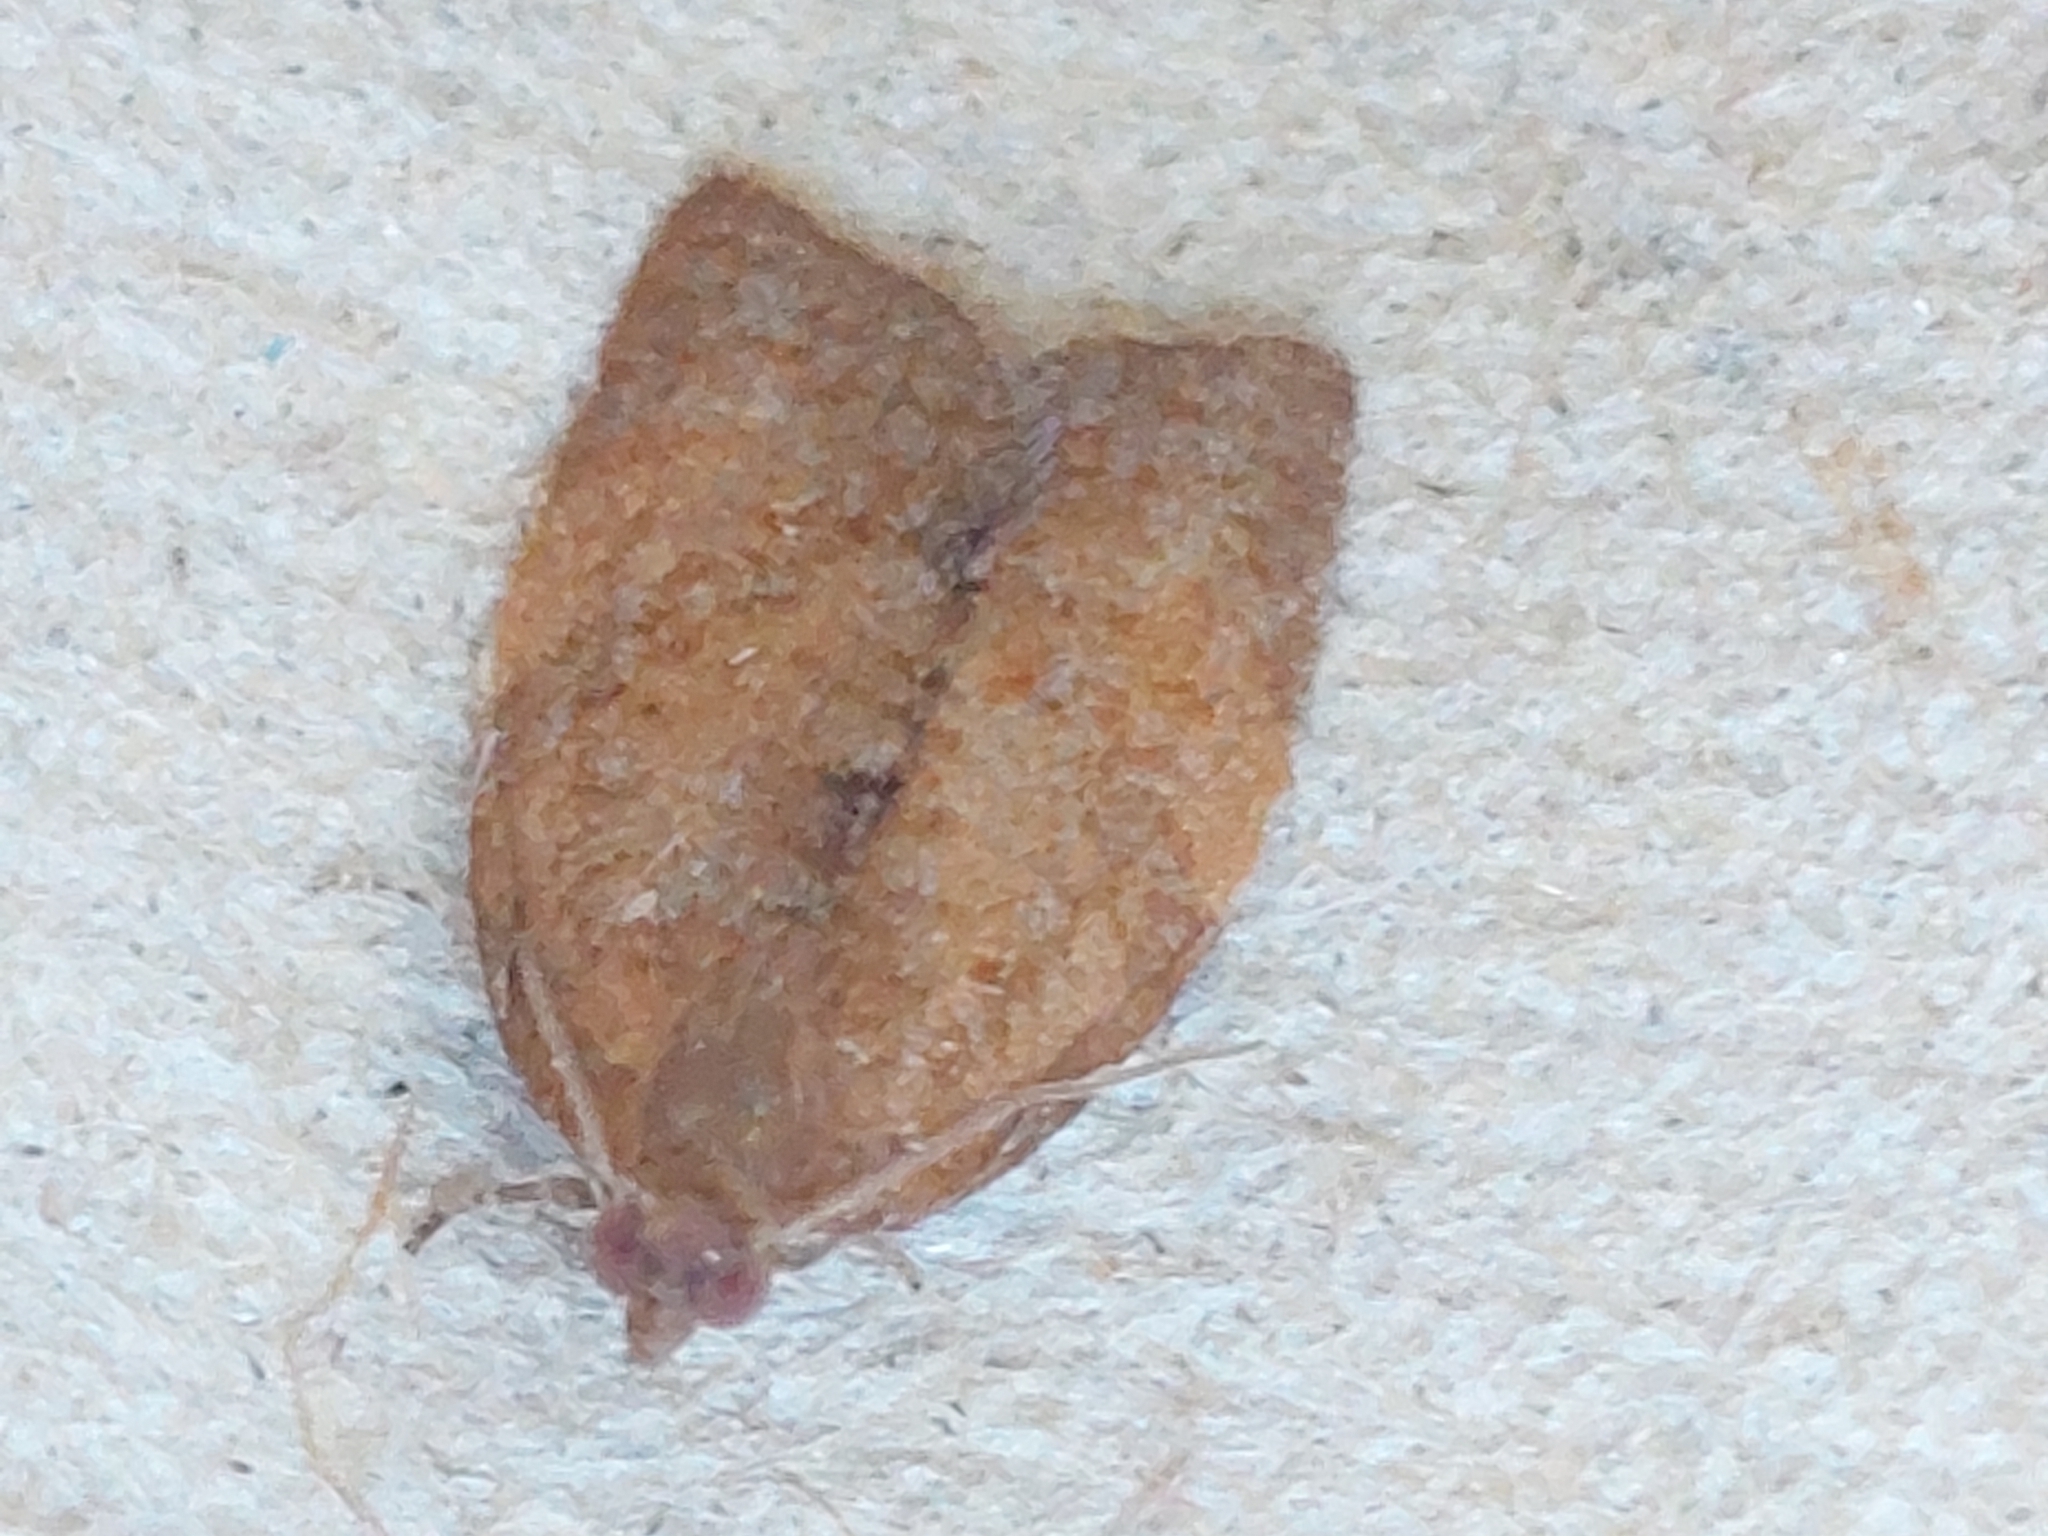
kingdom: Animalia
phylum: Arthropoda
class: Insecta
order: Lepidoptera
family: Tortricidae
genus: Clepsis
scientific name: Clepsis consimilana
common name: Privet tortrix
